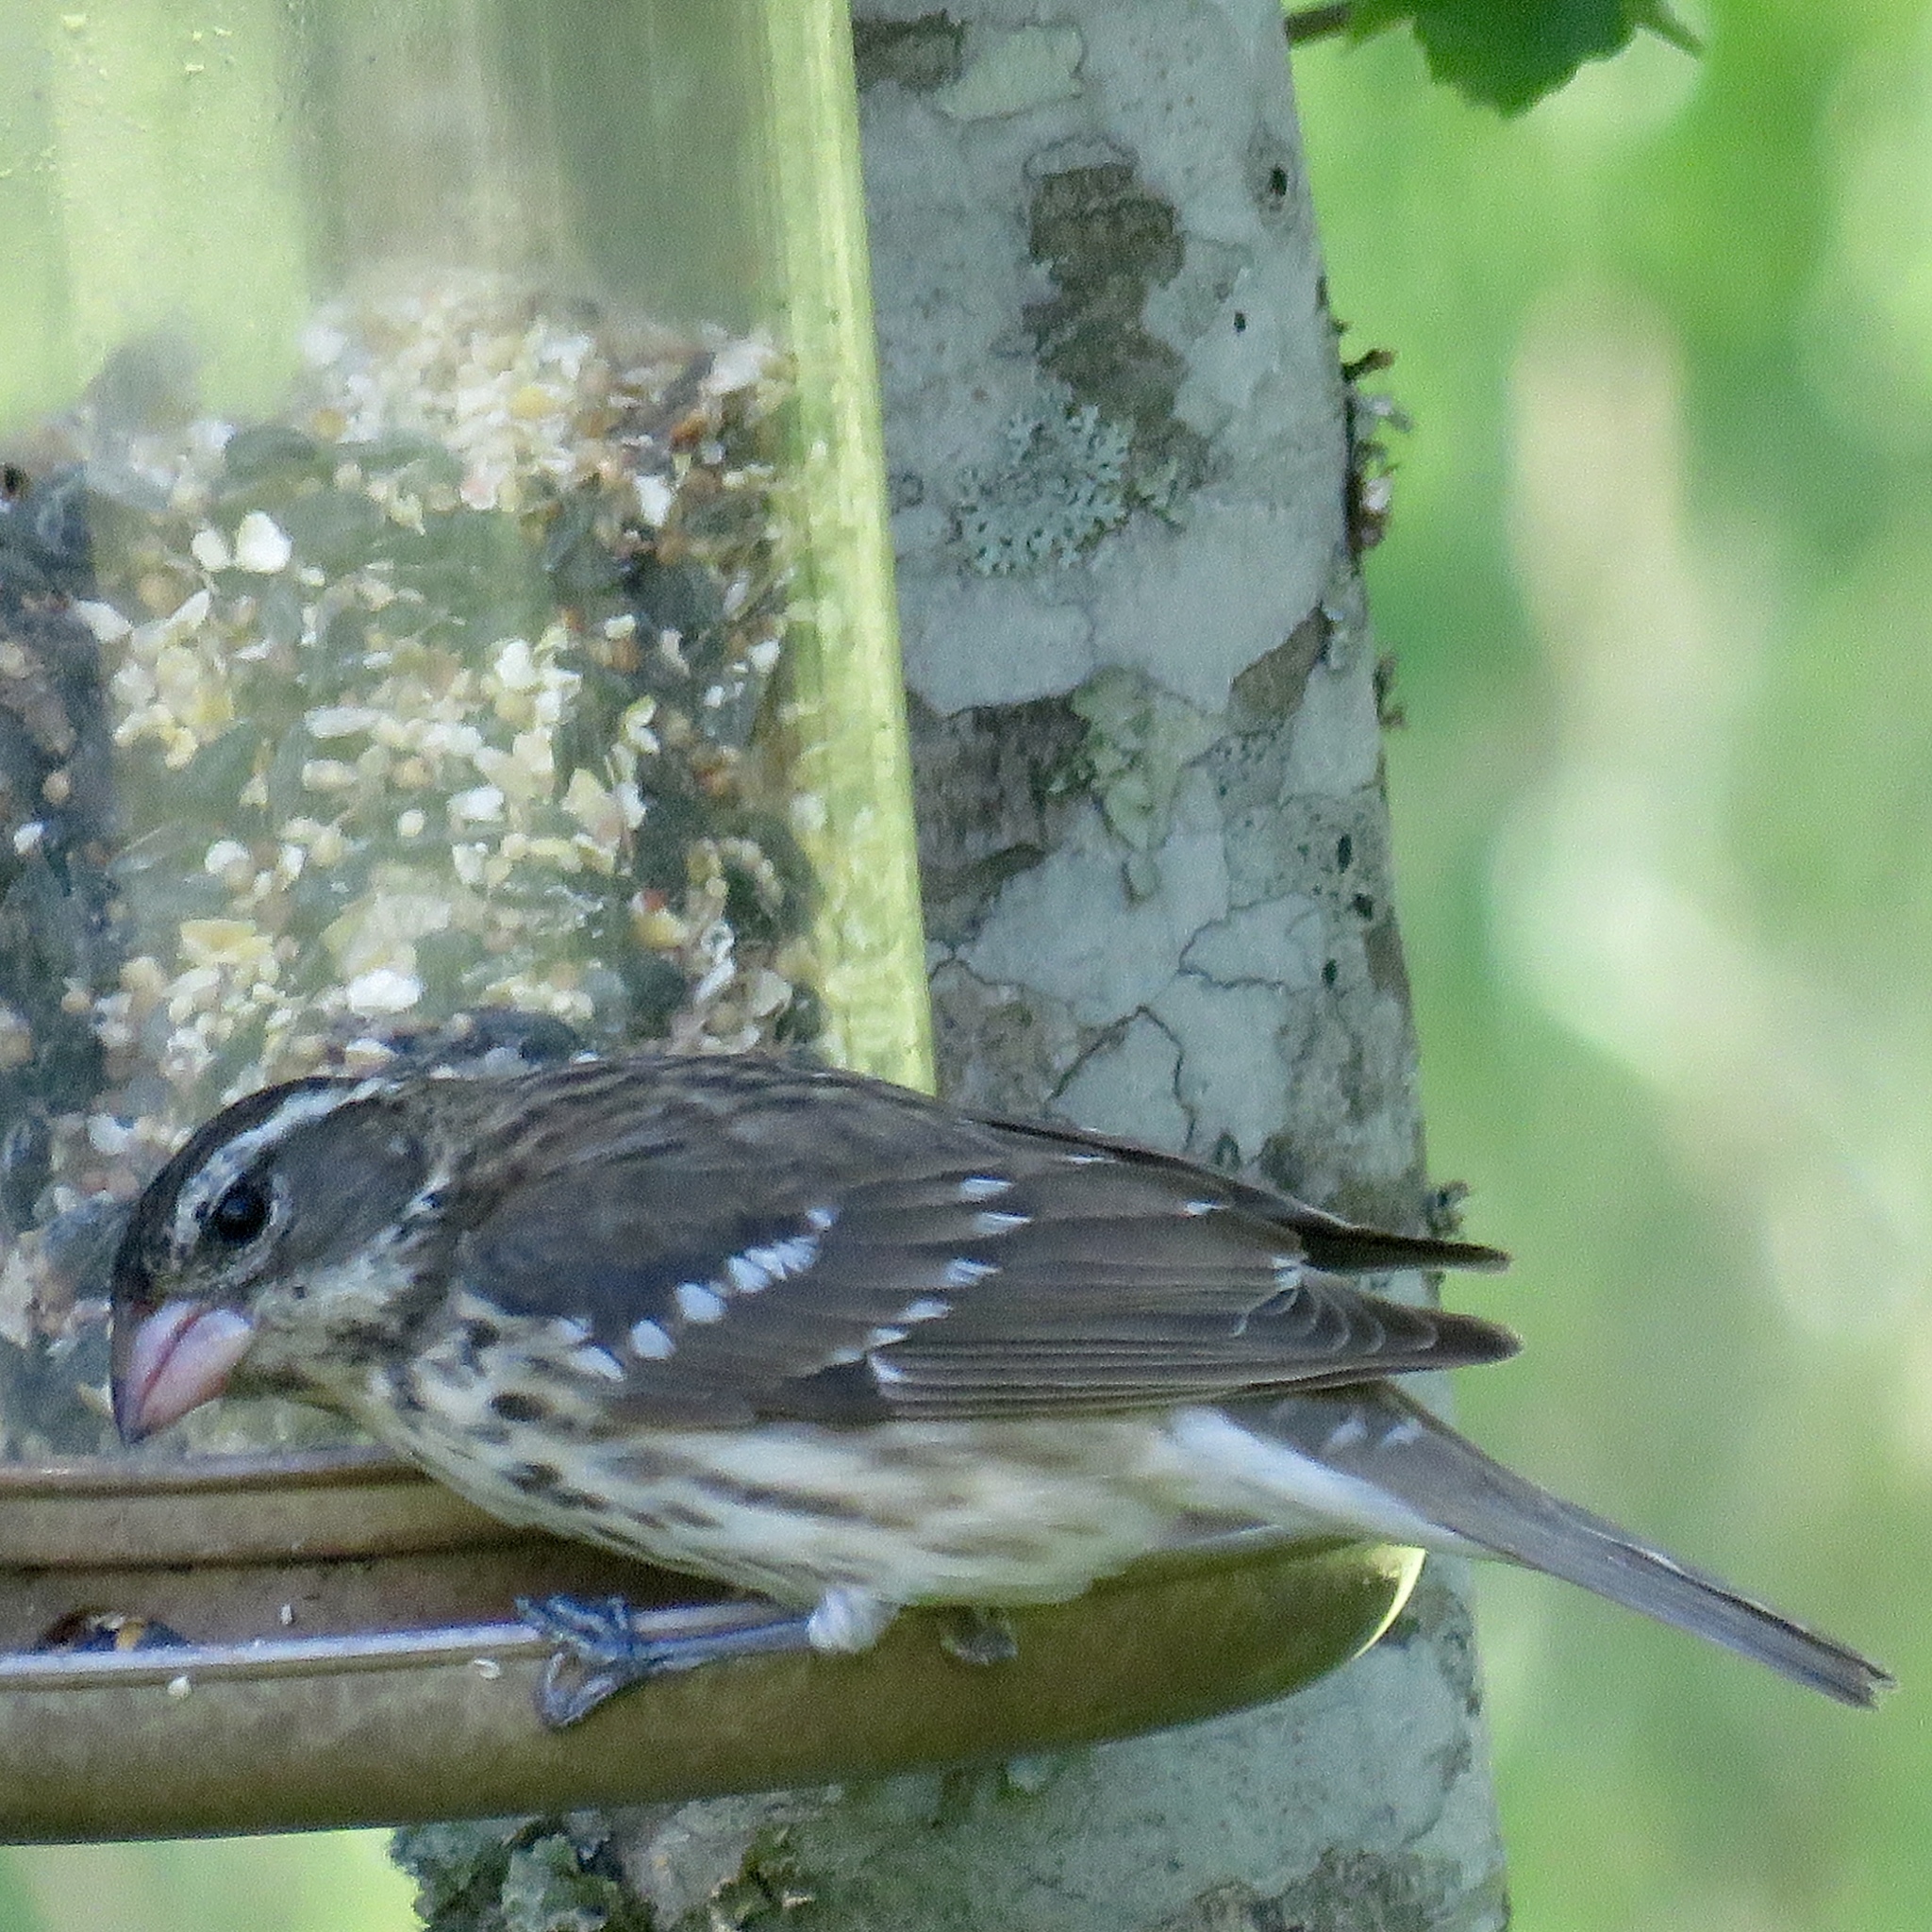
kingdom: Animalia
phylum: Chordata
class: Aves
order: Passeriformes
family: Cardinalidae
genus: Pheucticus
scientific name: Pheucticus ludovicianus
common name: Rose-breasted grosbeak
